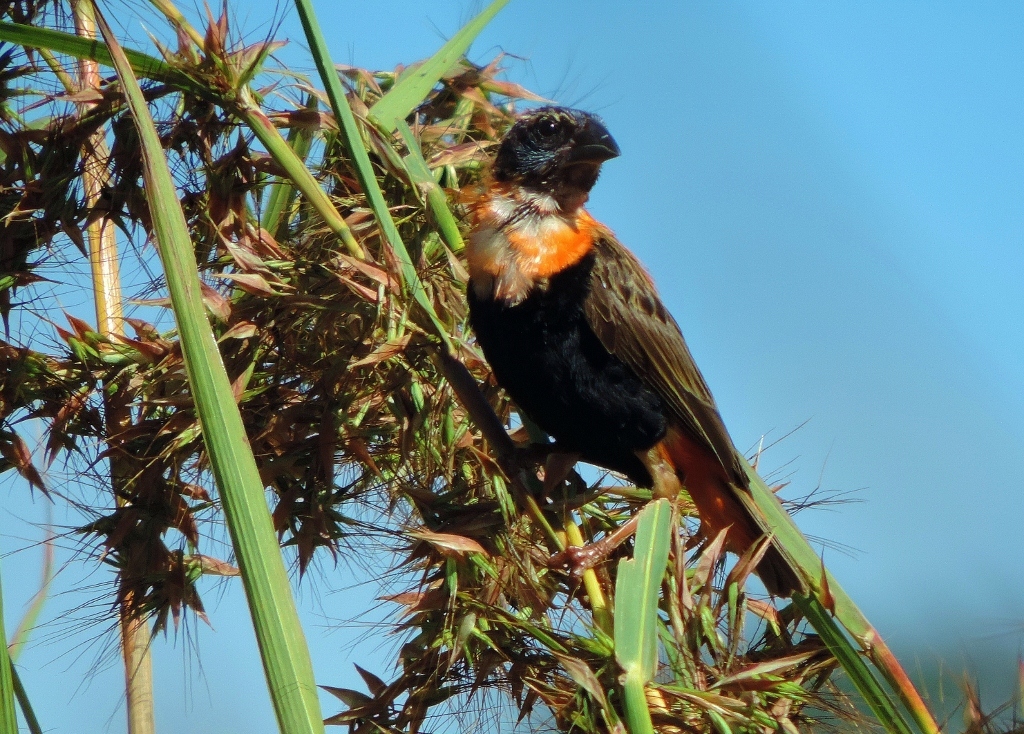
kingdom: Animalia
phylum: Chordata
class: Aves
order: Passeriformes
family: Ploceidae
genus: Euplectes
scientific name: Euplectes orix
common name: Southern red bishop
